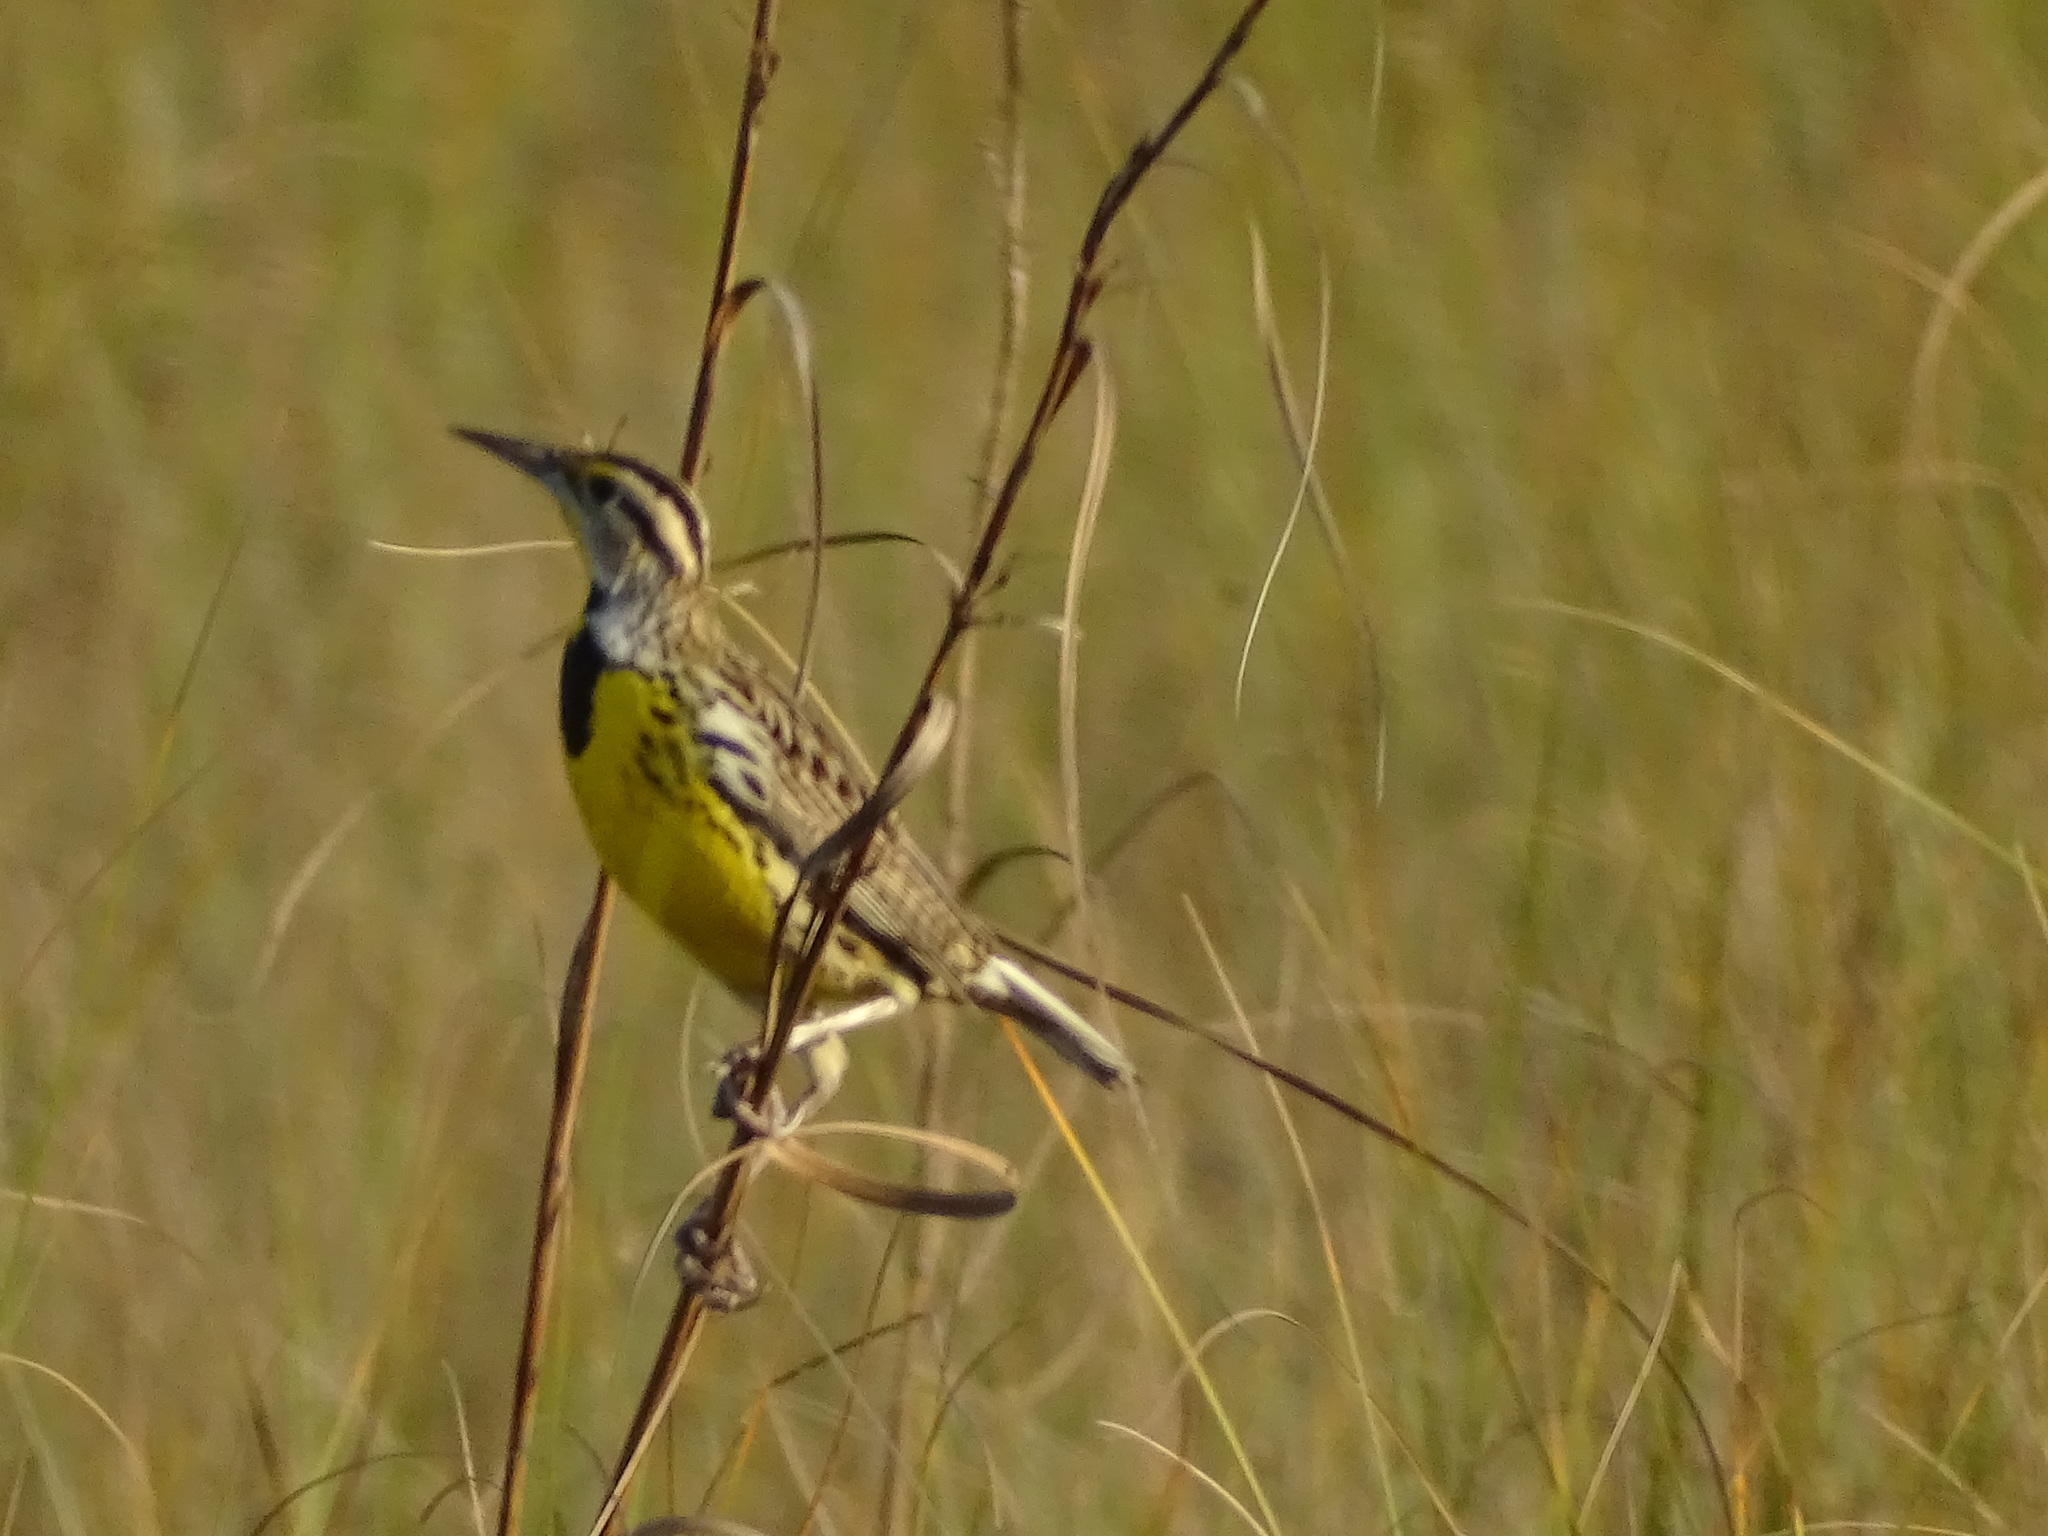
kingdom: Animalia
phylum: Chordata
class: Aves
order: Passeriformes
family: Icteridae
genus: Sturnella
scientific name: Sturnella magna
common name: Eastern meadowlark
